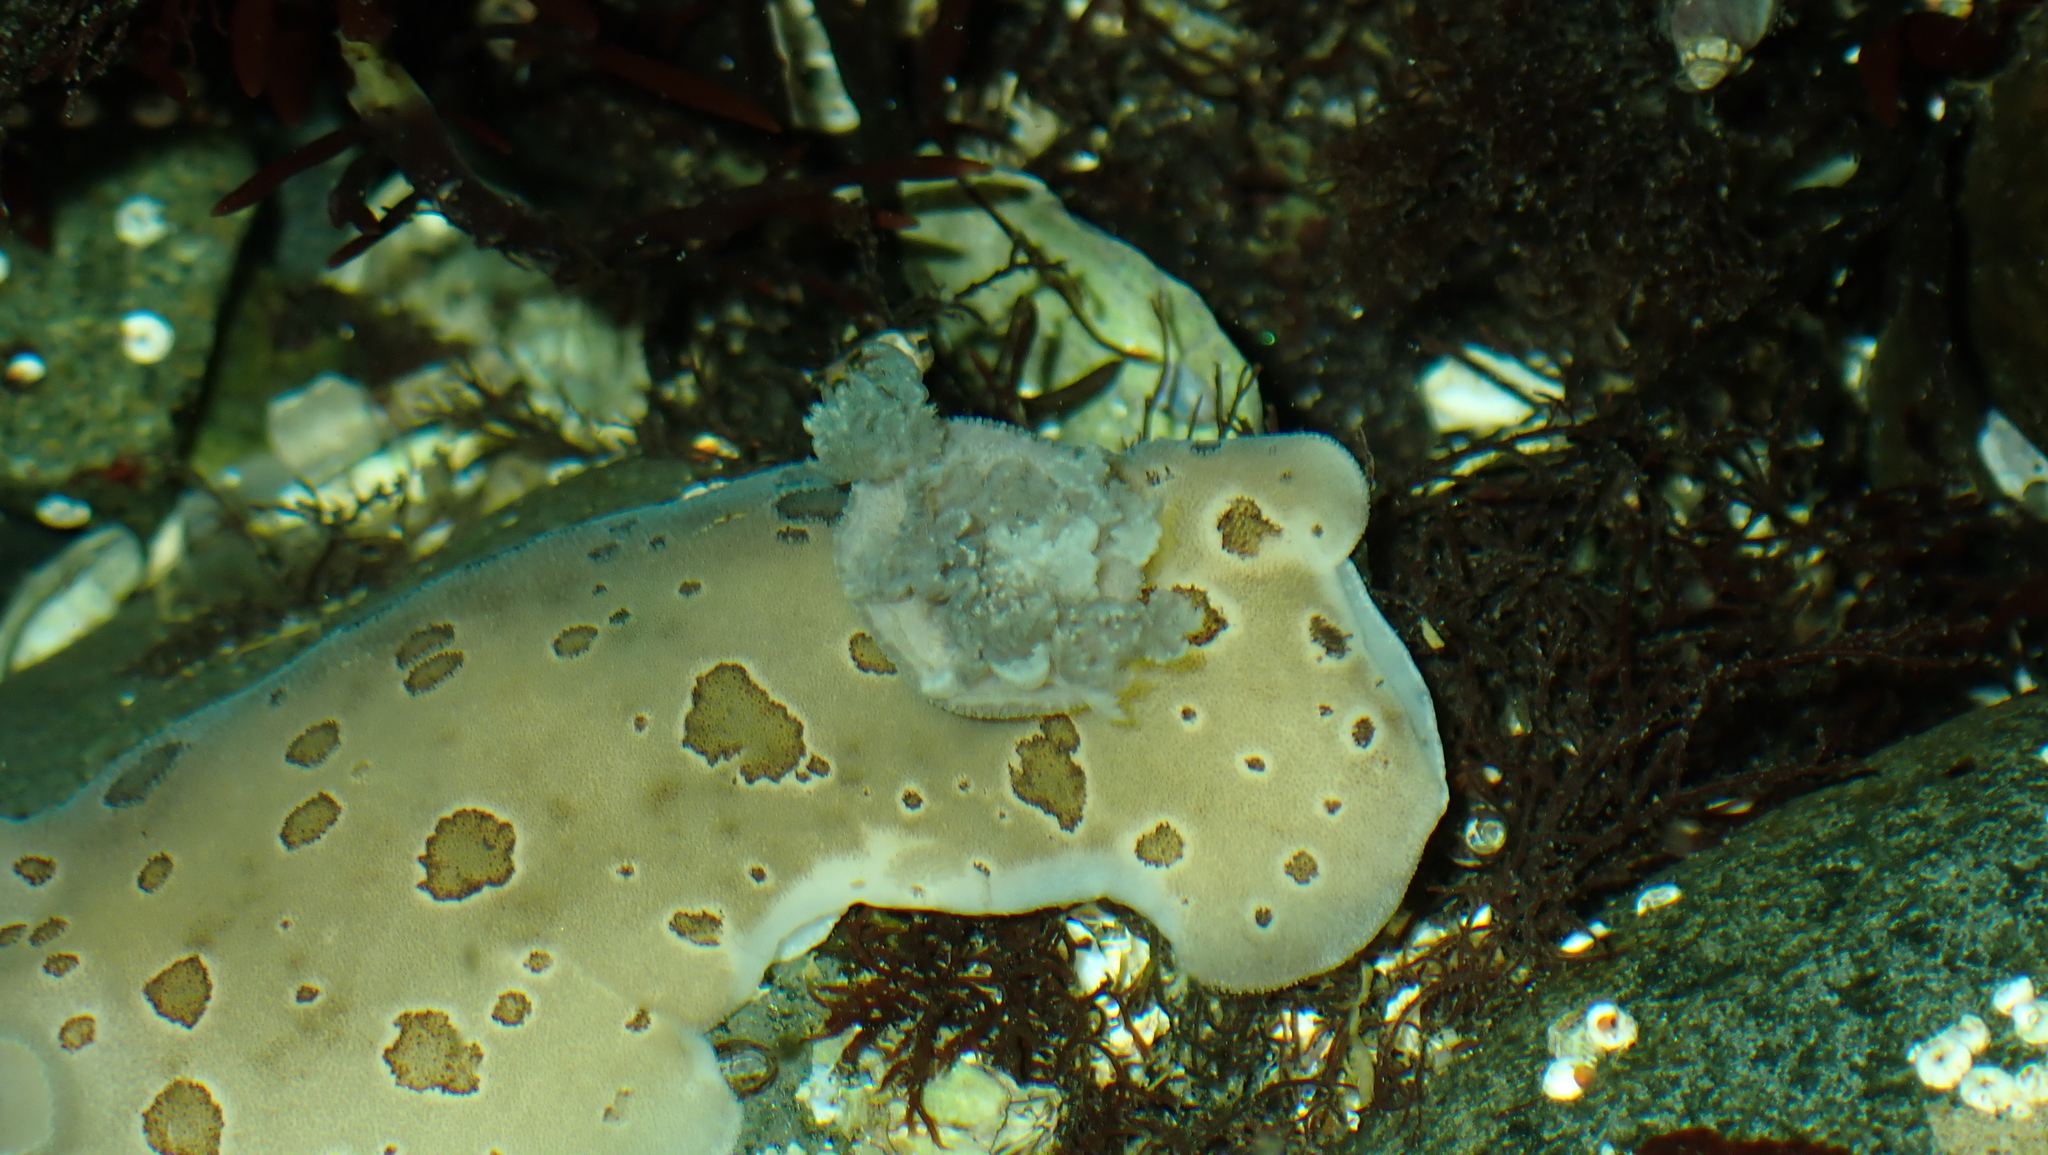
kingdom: Animalia
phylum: Mollusca
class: Gastropoda
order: Nudibranchia
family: Discodorididae
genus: Diaulula
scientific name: Diaulula odonoghuei
